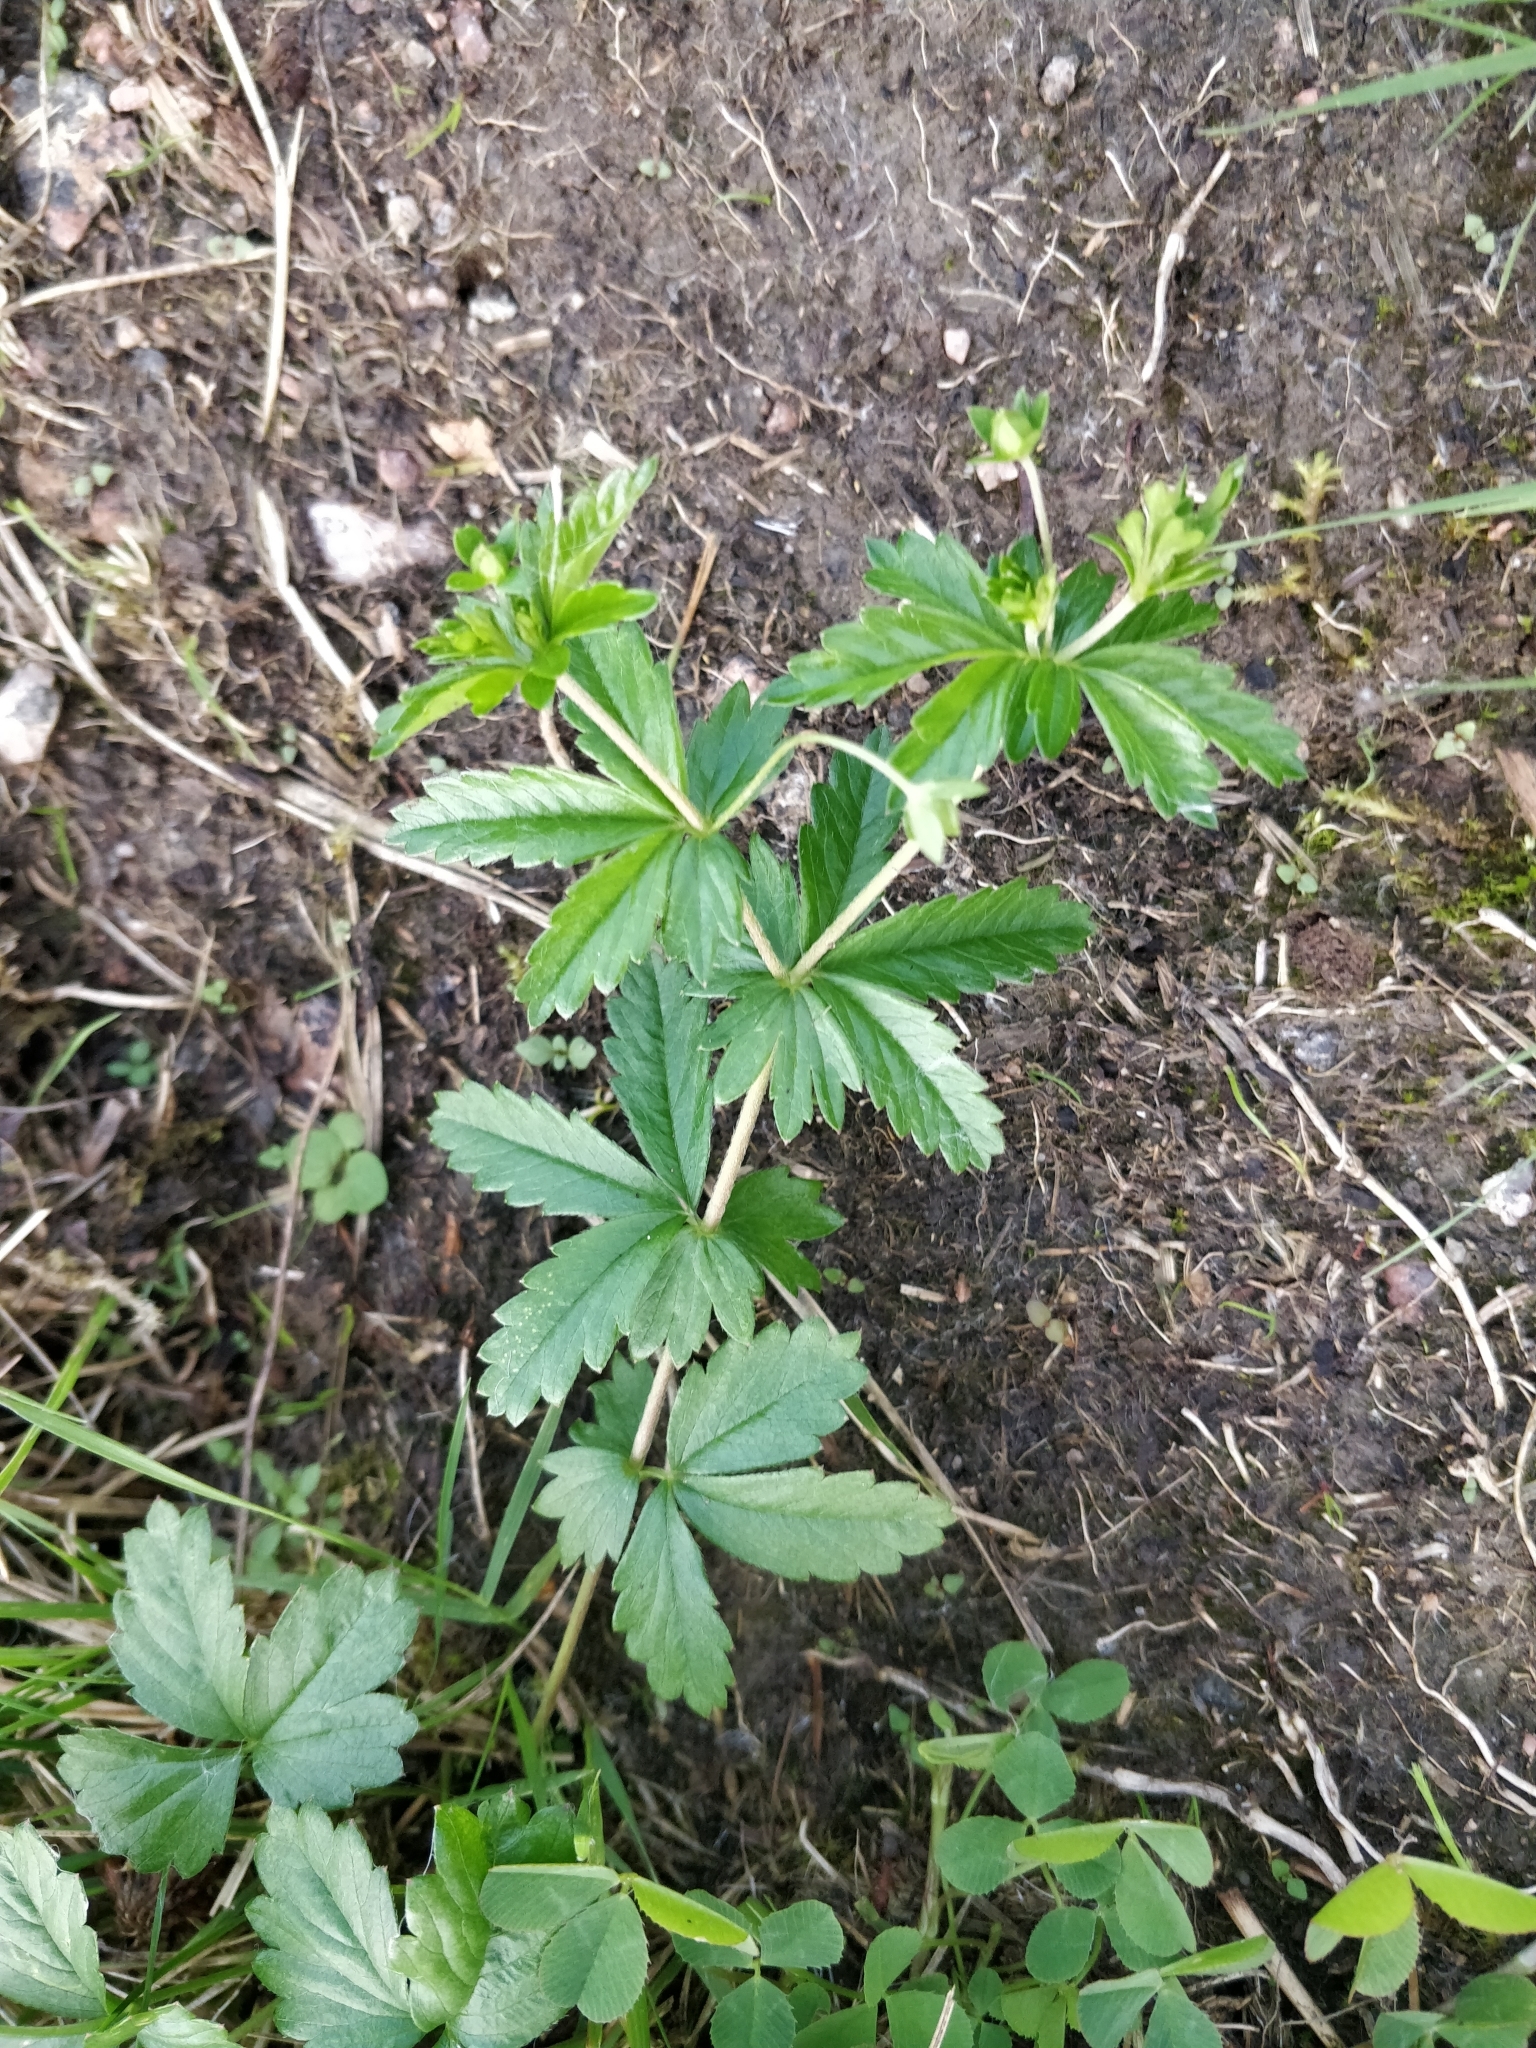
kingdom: Plantae
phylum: Tracheophyta
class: Magnoliopsida
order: Rosales
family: Rosaceae
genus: Potentilla
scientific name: Potentilla erecta
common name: Tormentil
